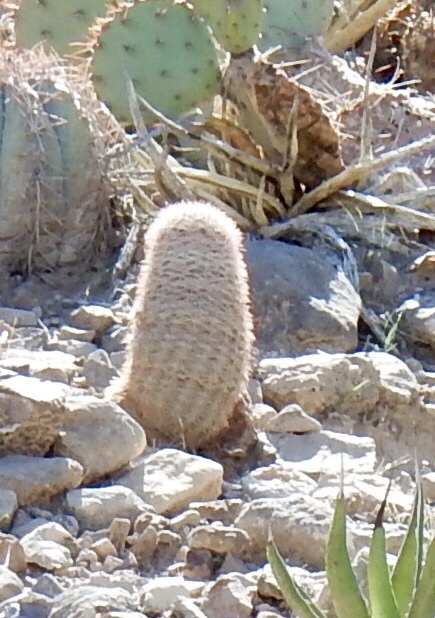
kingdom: Plantae
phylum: Tracheophyta
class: Magnoliopsida
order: Caryophyllales
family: Cactaceae
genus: Echinocereus
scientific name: Echinocereus dasyacanthus
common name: Spiny hedgehog cactus
